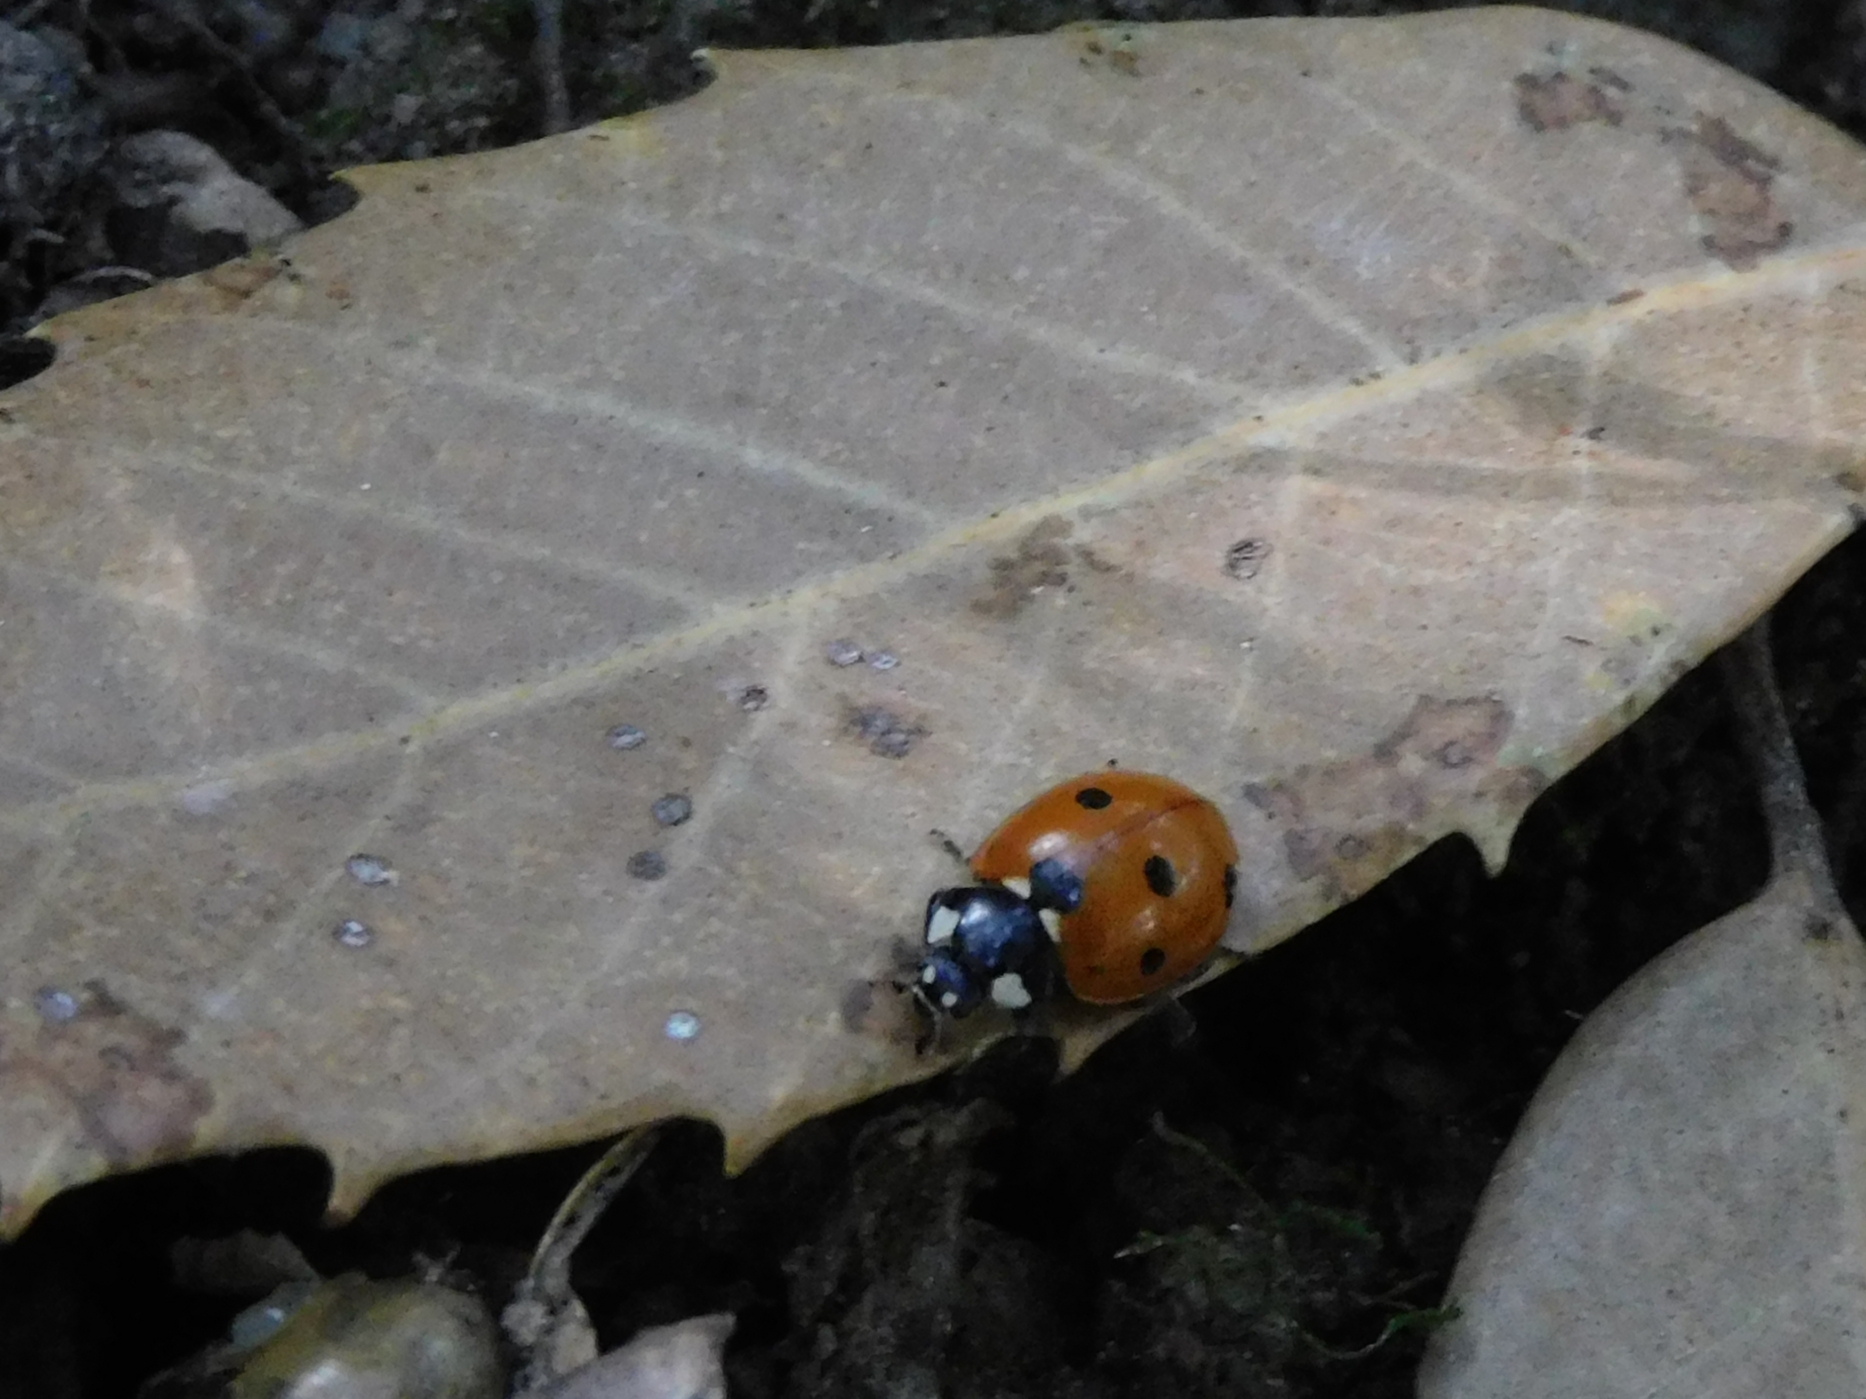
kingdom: Animalia
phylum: Arthropoda
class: Insecta
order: Coleoptera
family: Coccinellidae
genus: Coccinella
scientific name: Coccinella septempunctata
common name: Sevenspotted lady beetle
